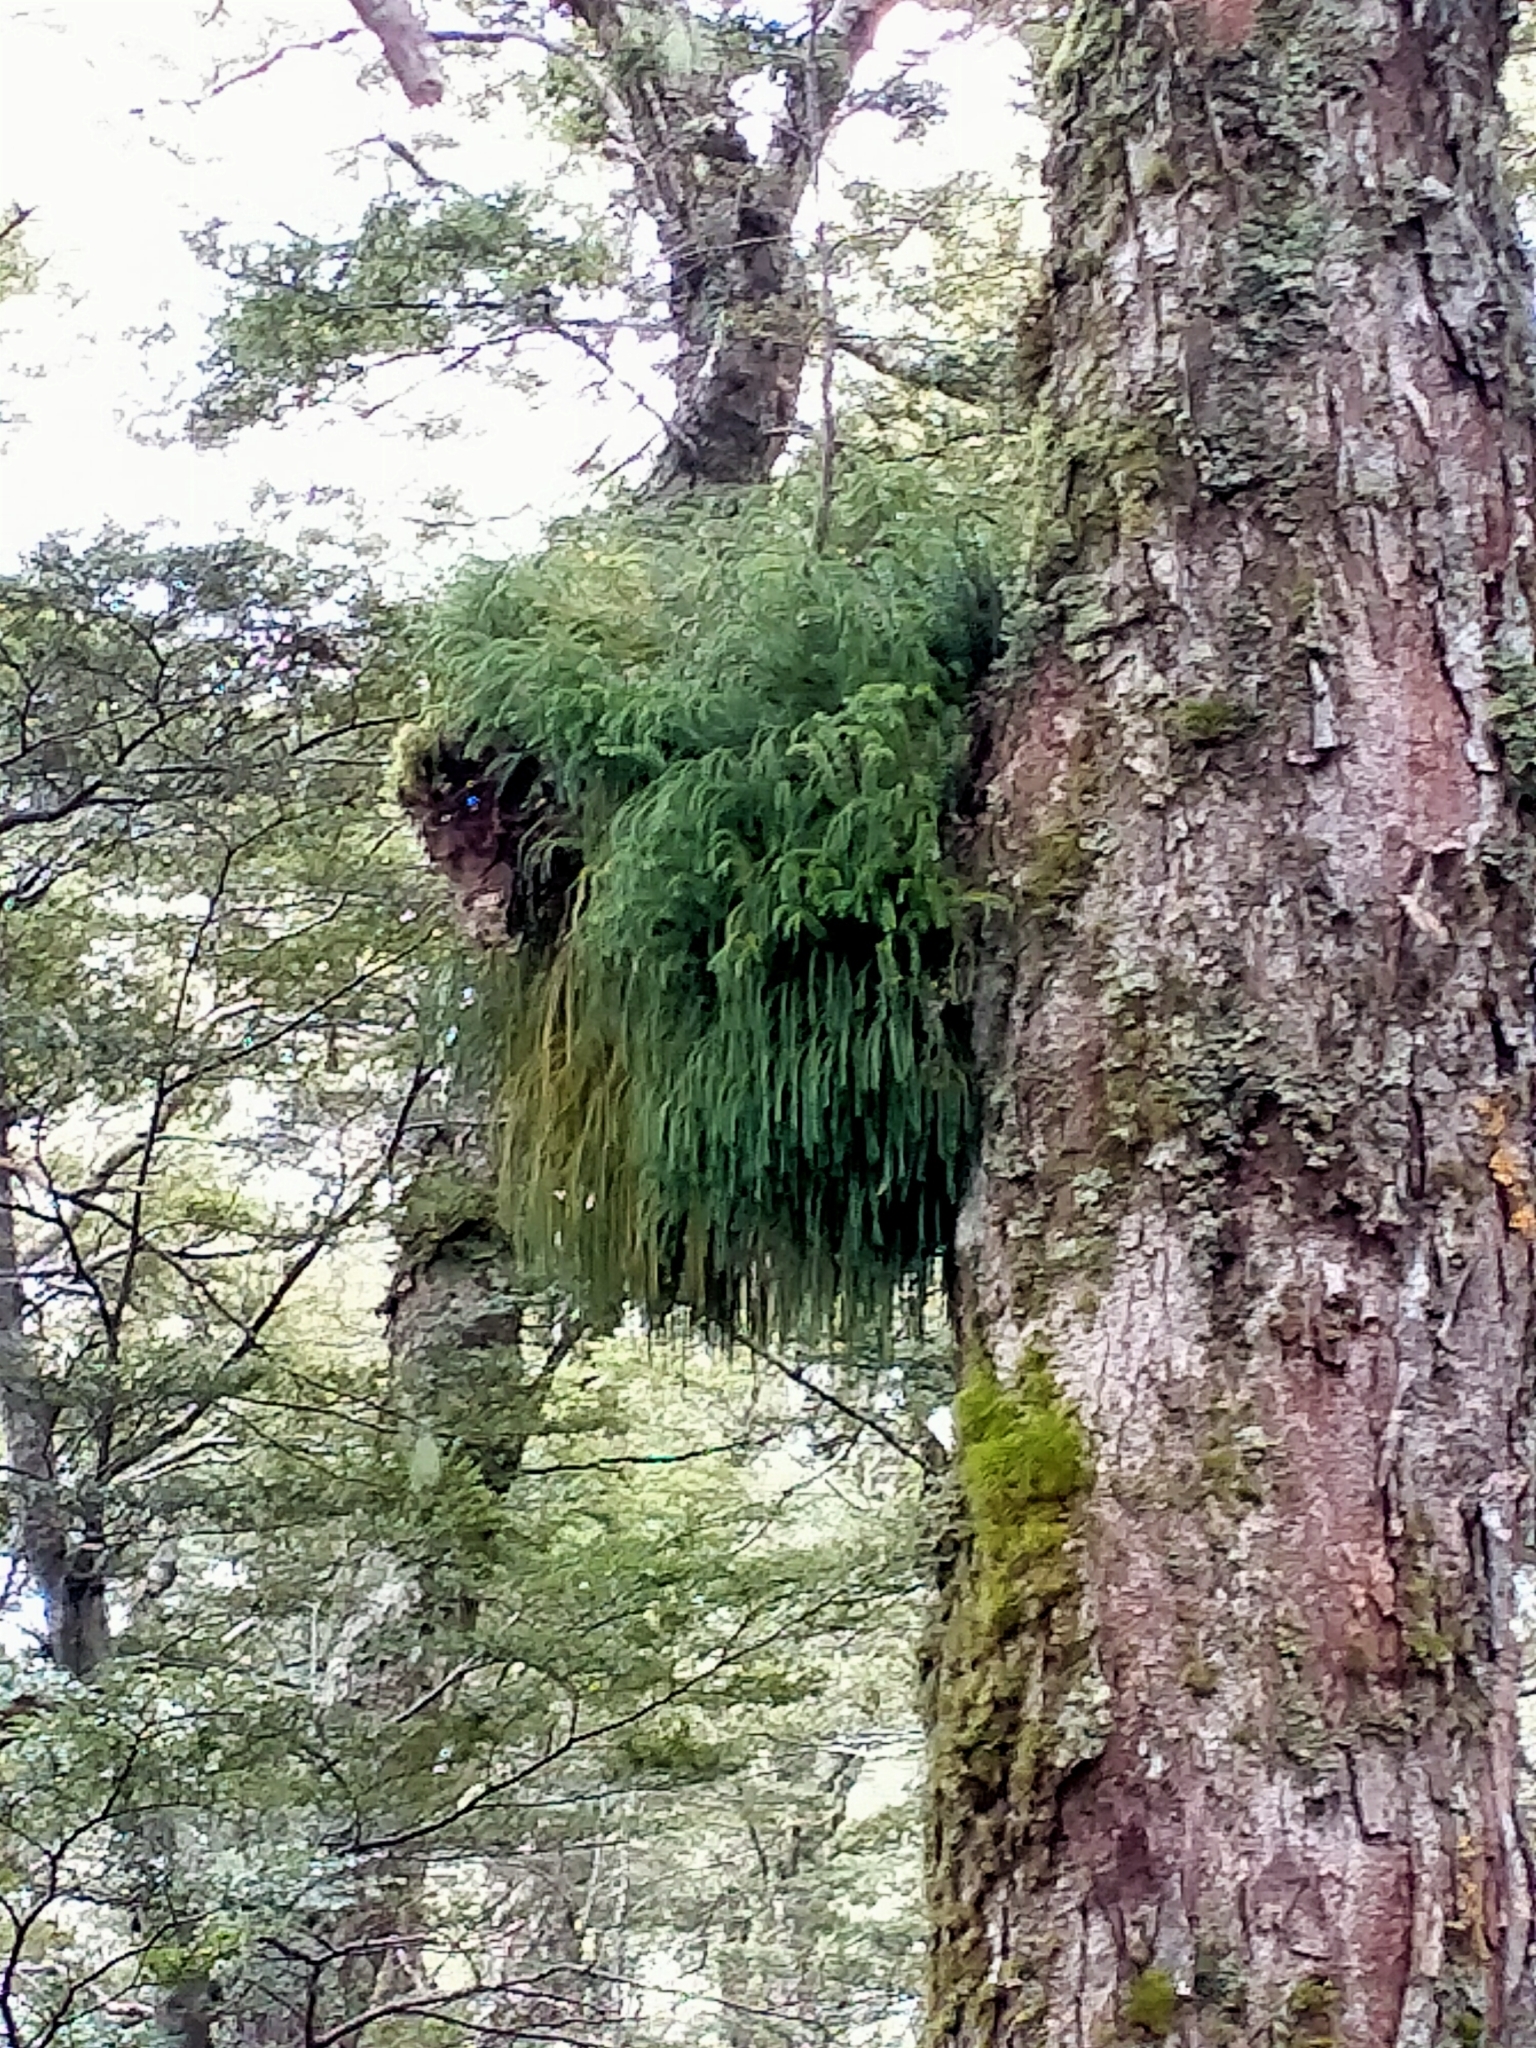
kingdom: Plantae
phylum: Tracheophyta
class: Lycopodiopsida
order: Lycopodiales
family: Lycopodiaceae
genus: Phlegmariurus
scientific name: Phlegmariurus varius
